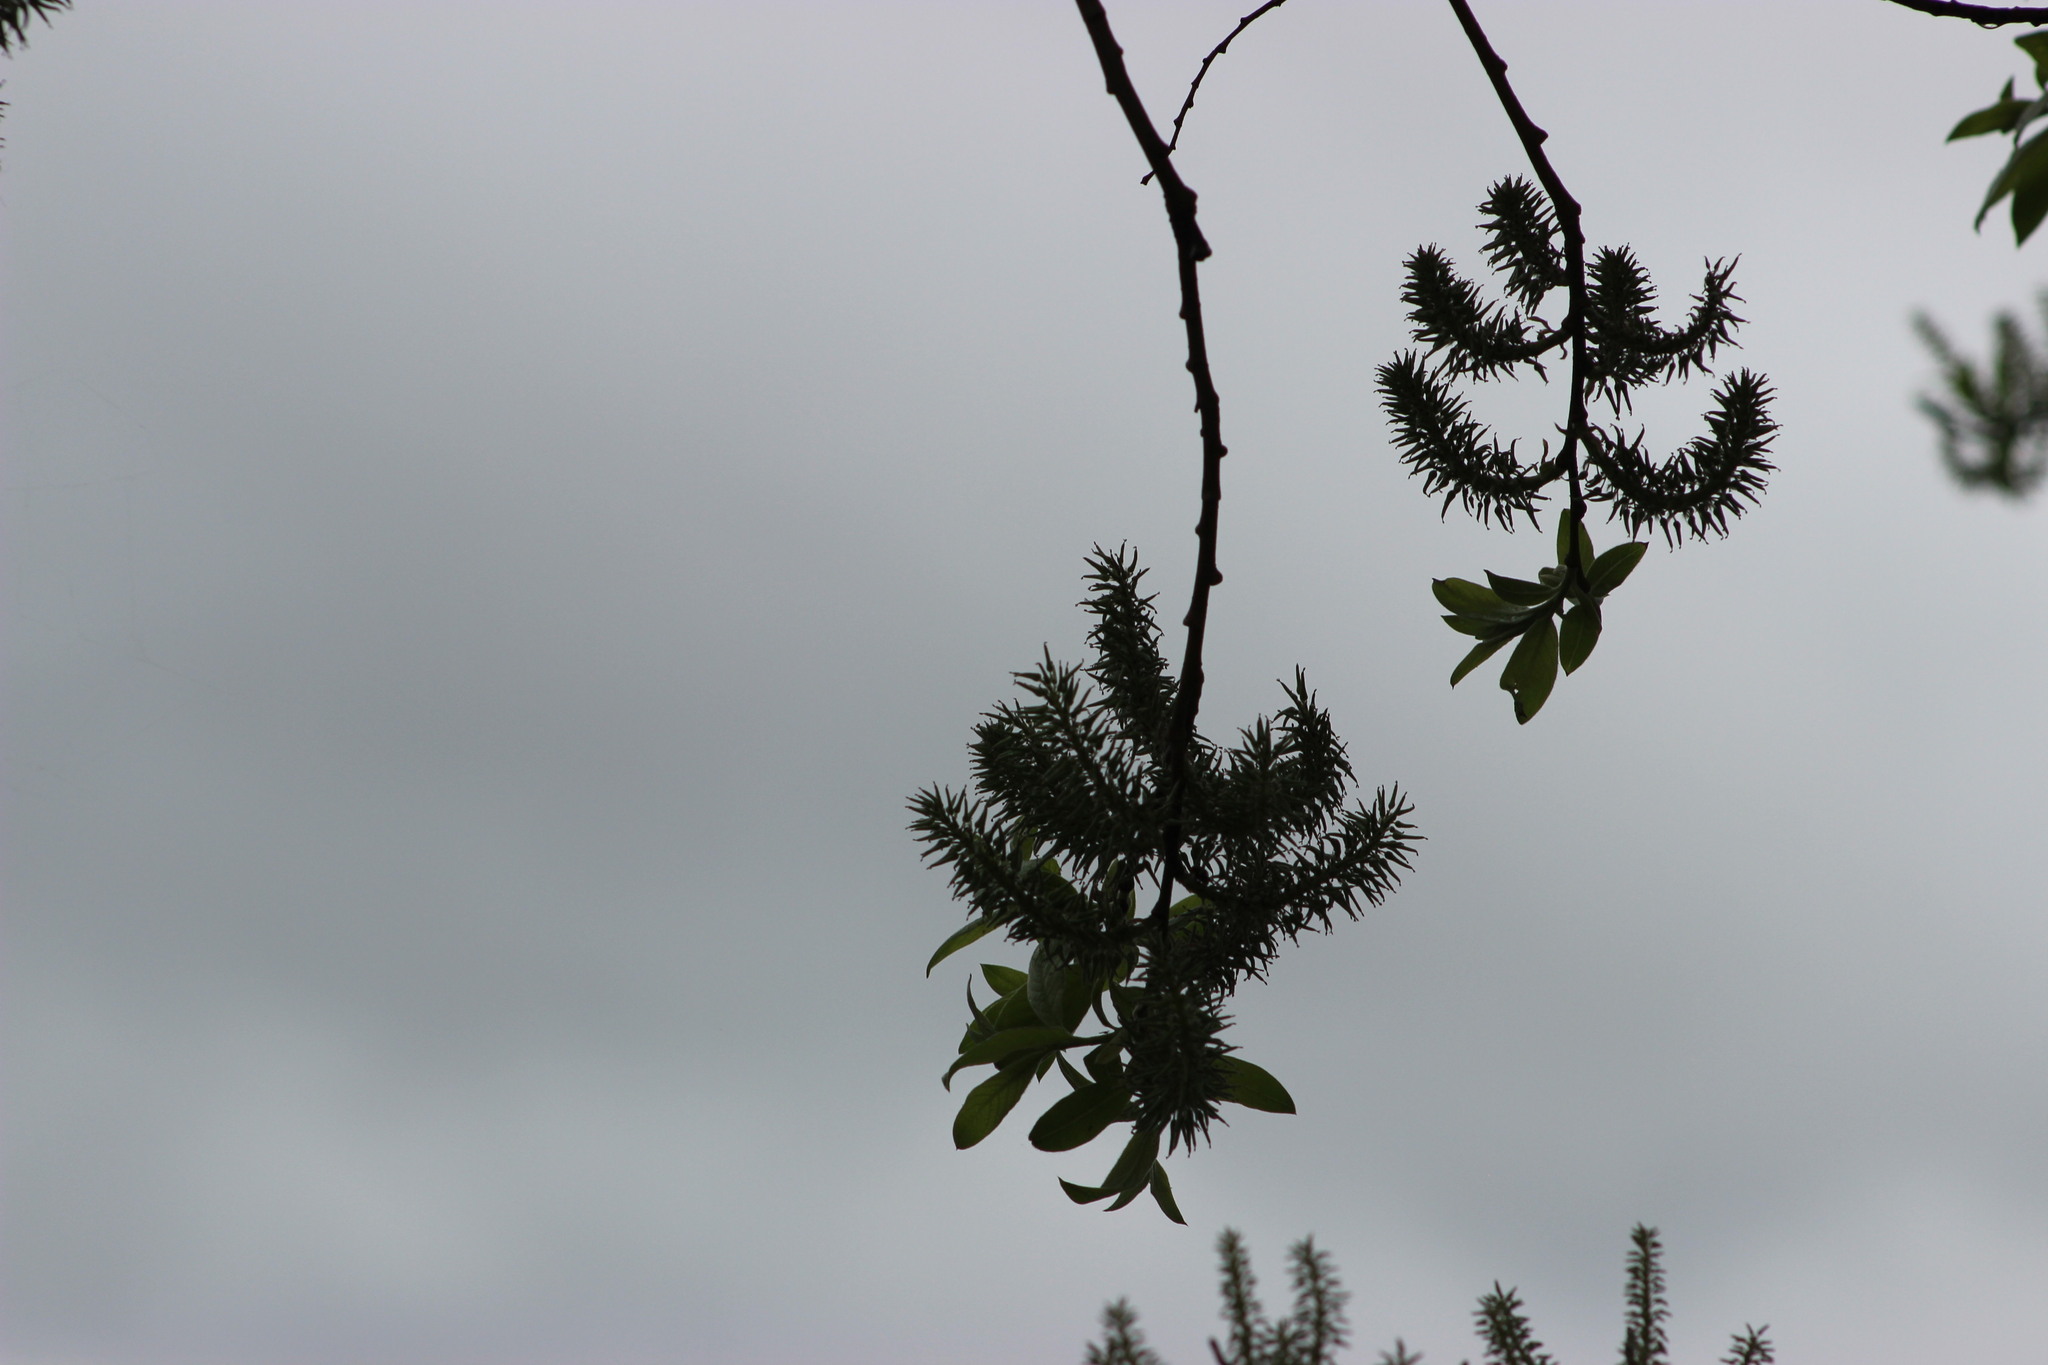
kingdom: Plantae
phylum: Tracheophyta
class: Magnoliopsida
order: Malpighiales
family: Salicaceae
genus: Salix
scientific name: Salix caprea
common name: Goat willow
